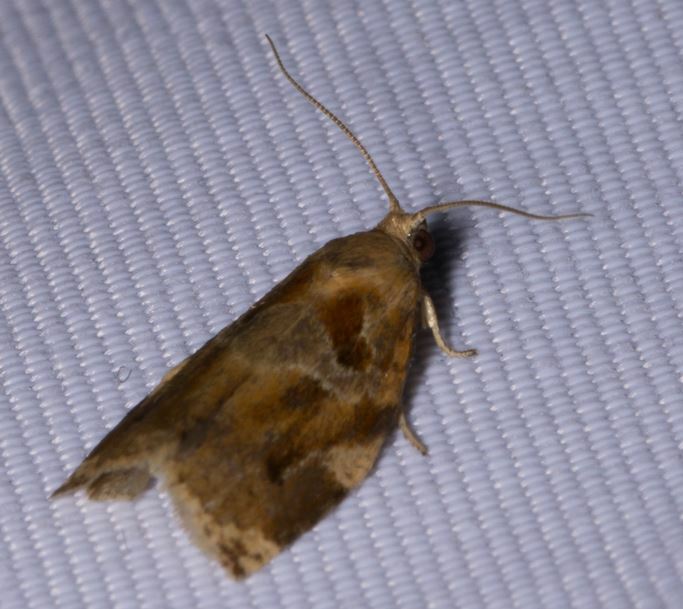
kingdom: Animalia
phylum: Arthropoda
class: Insecta
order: Lepidoptera
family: Tortricidae
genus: Archips
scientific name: Archips xylosteana
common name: Variegated golden tortrix
